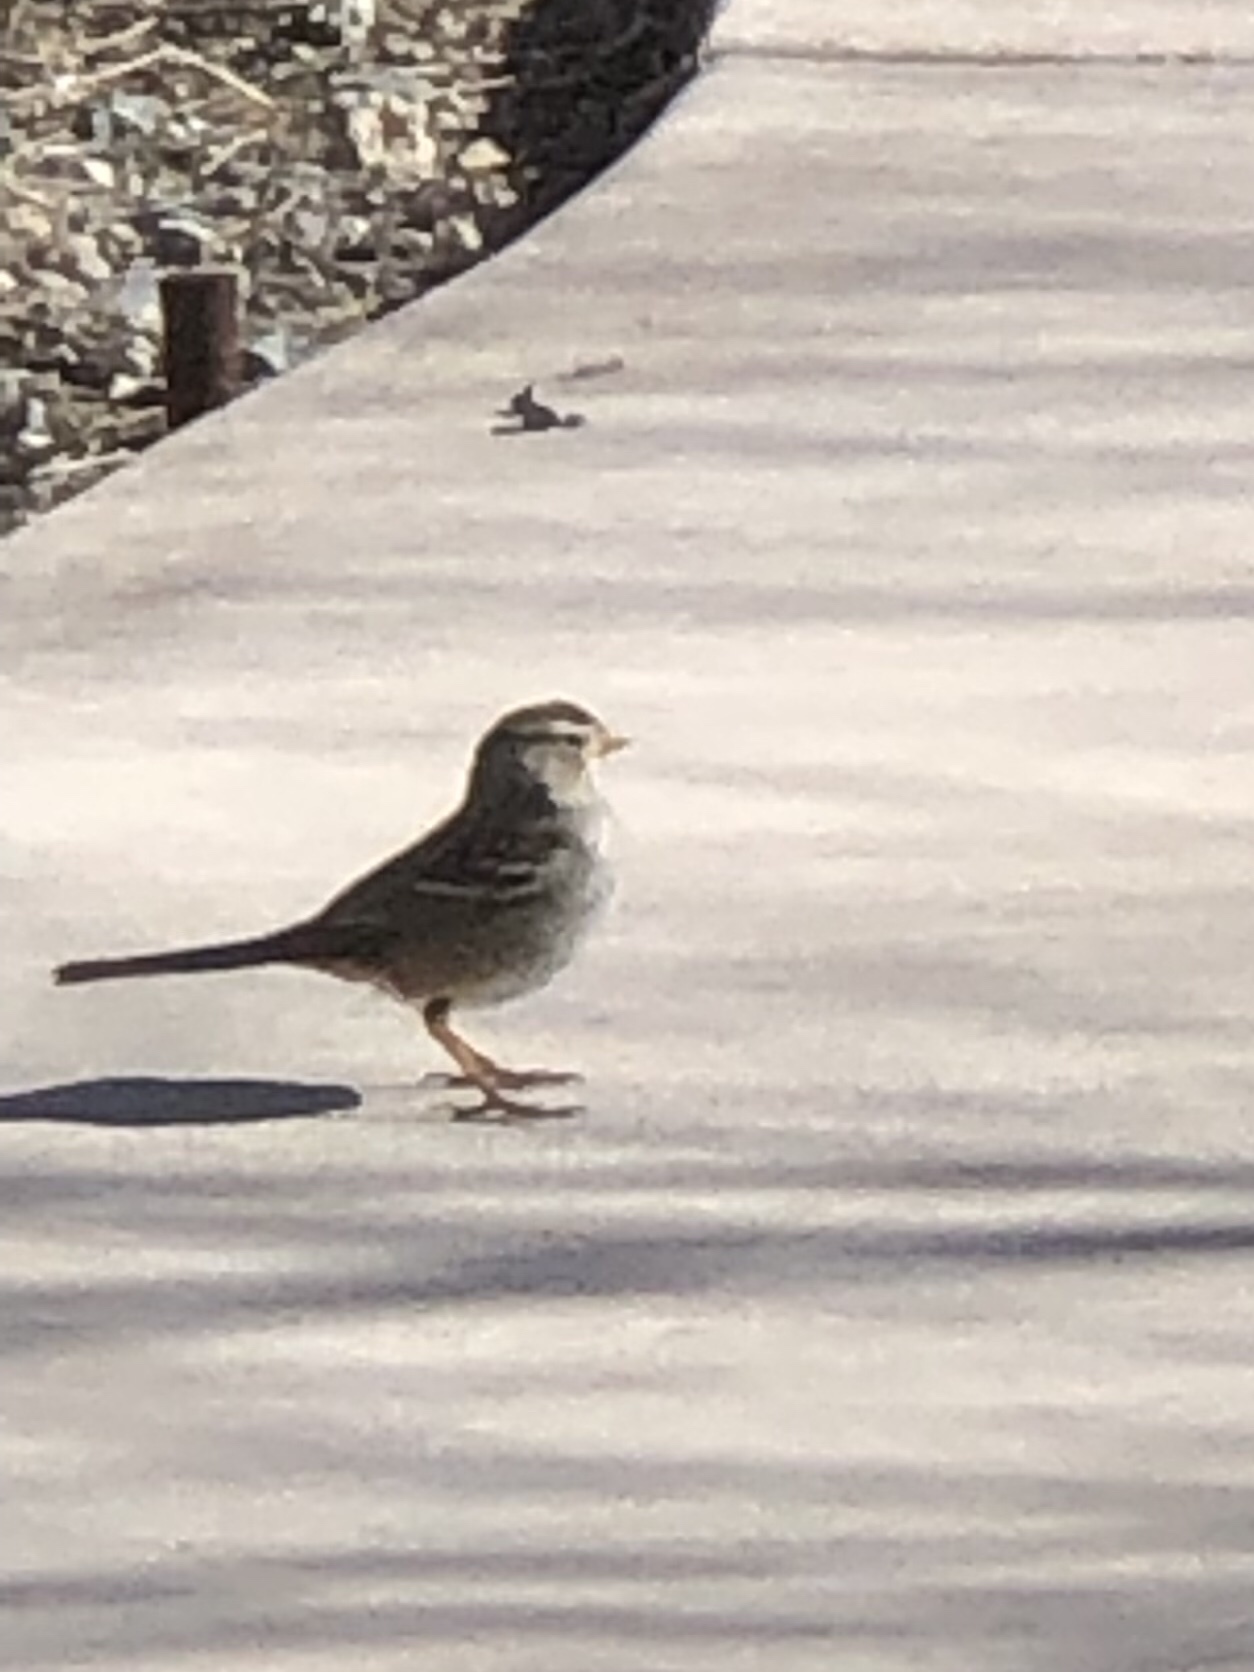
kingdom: Animalia
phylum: Chordata
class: Aves
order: Passeriformes
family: Passerellidae
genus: Zonotrichia
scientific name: Zonotrichia leucophrys
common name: White-crowned sparrow
